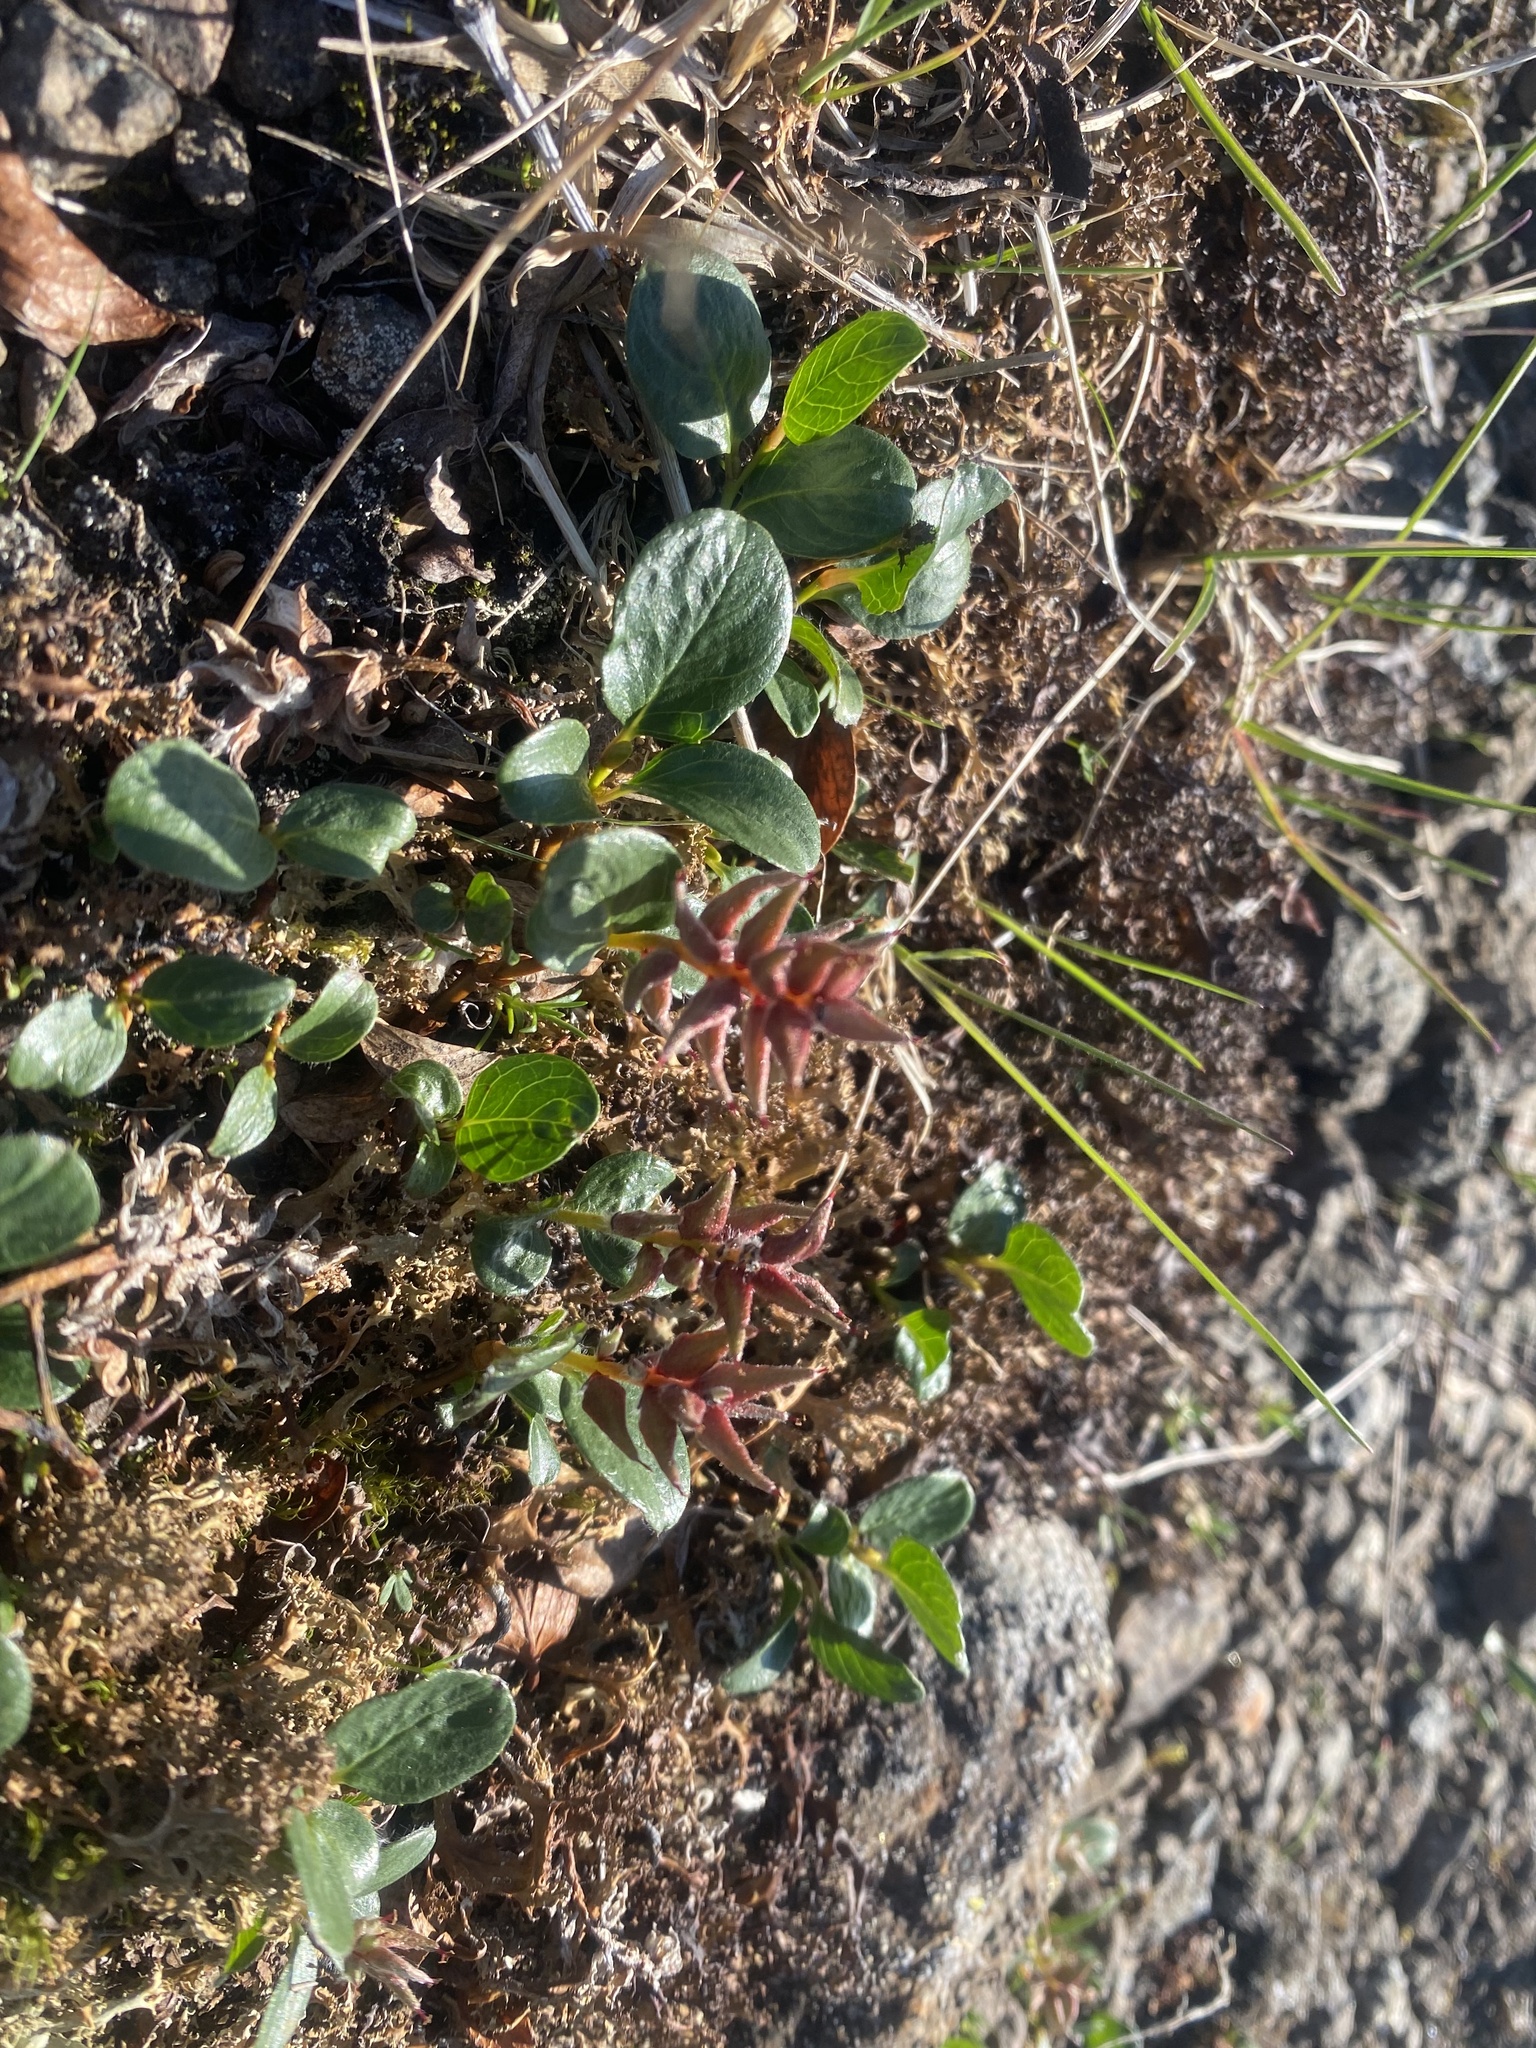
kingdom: Plantae
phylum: Tracheophyta
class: Magnoliopsida
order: Malpighiales
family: Salicaceae
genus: Salix
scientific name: Salix polaris
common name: Polar willow
